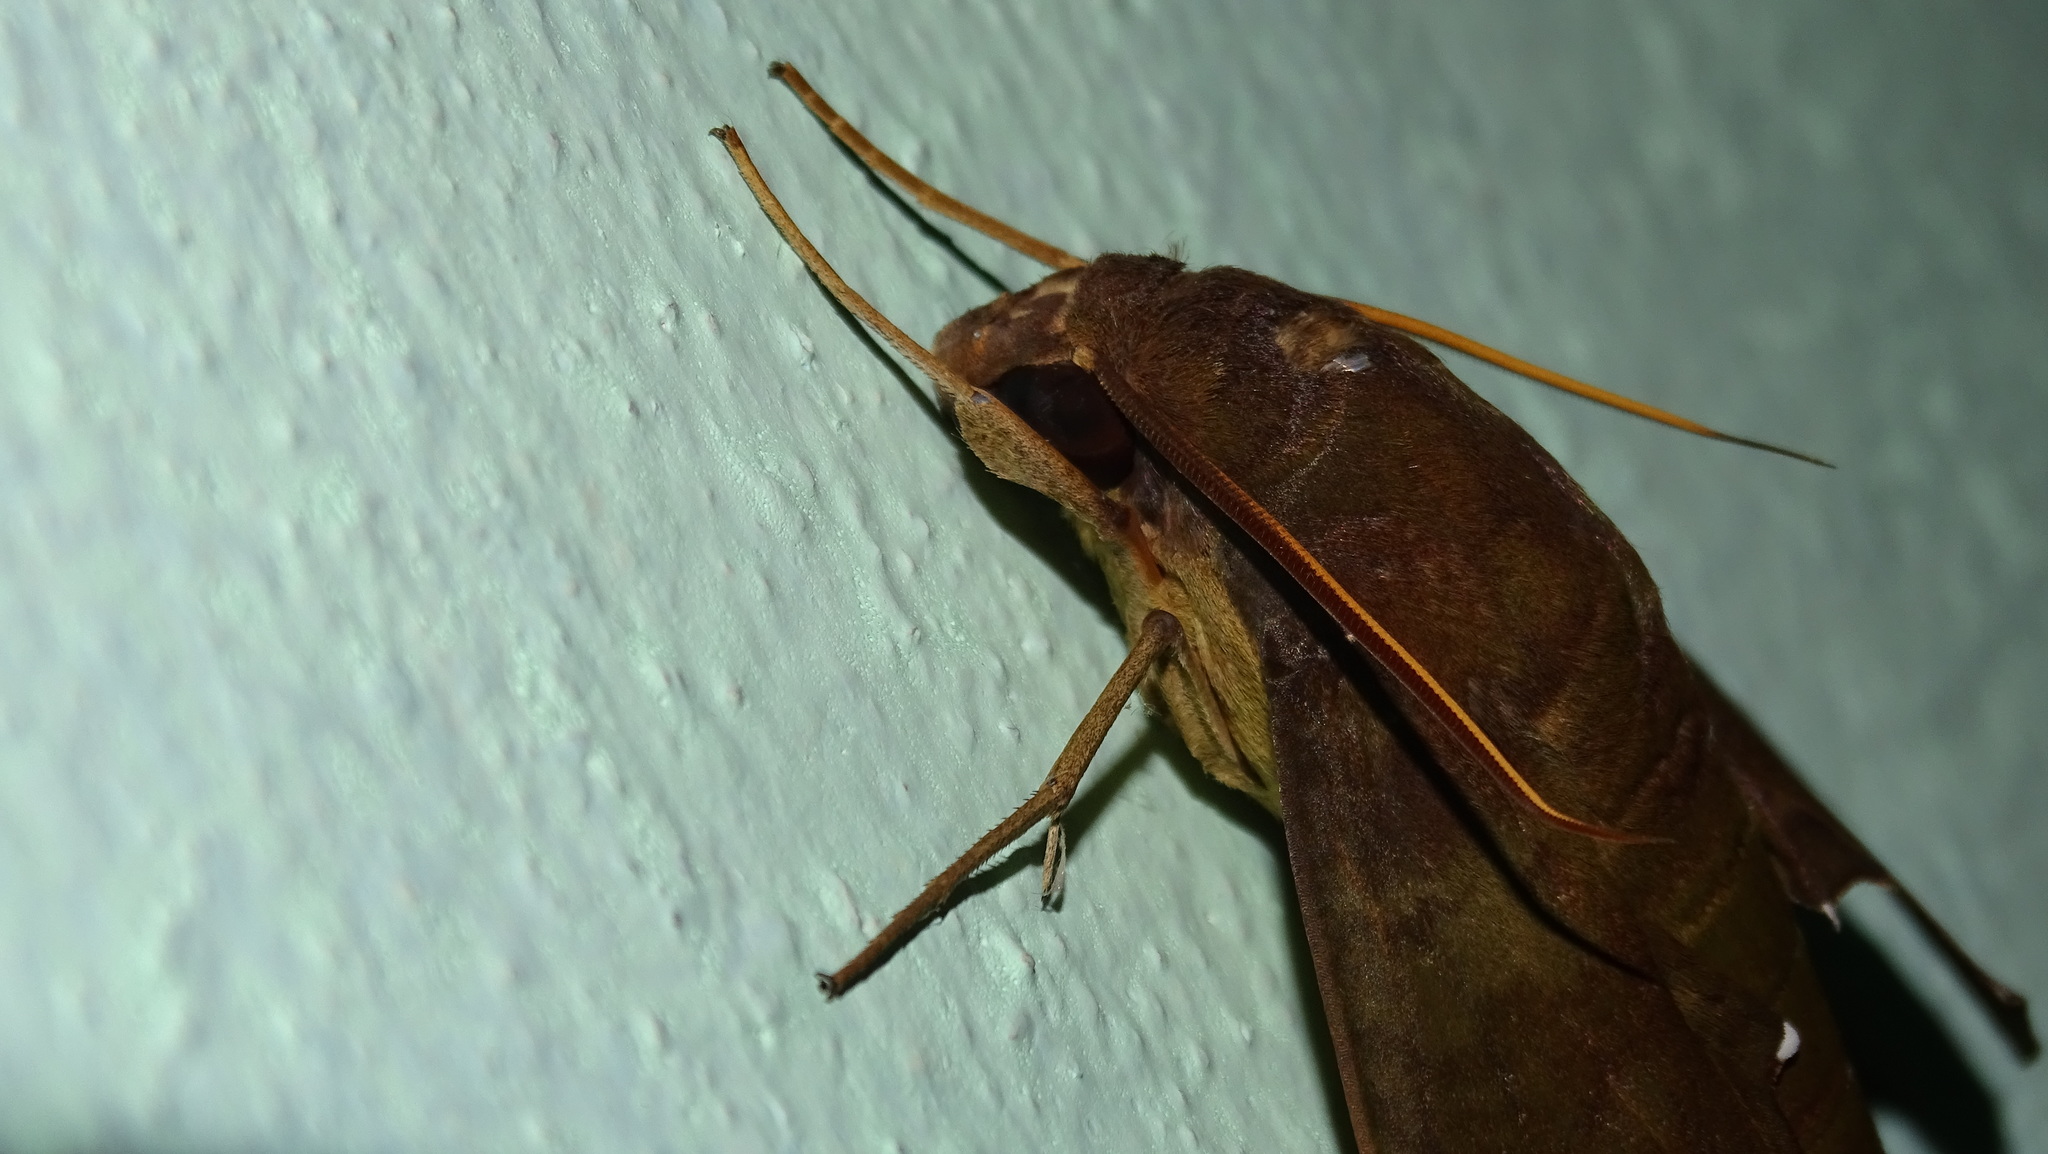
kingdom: Animalia
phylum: Arthropoda
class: Insecta
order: Lepidoptera
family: Sphingidae
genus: Pachylia
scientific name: Pachylia ficus
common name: Fig sphinx
